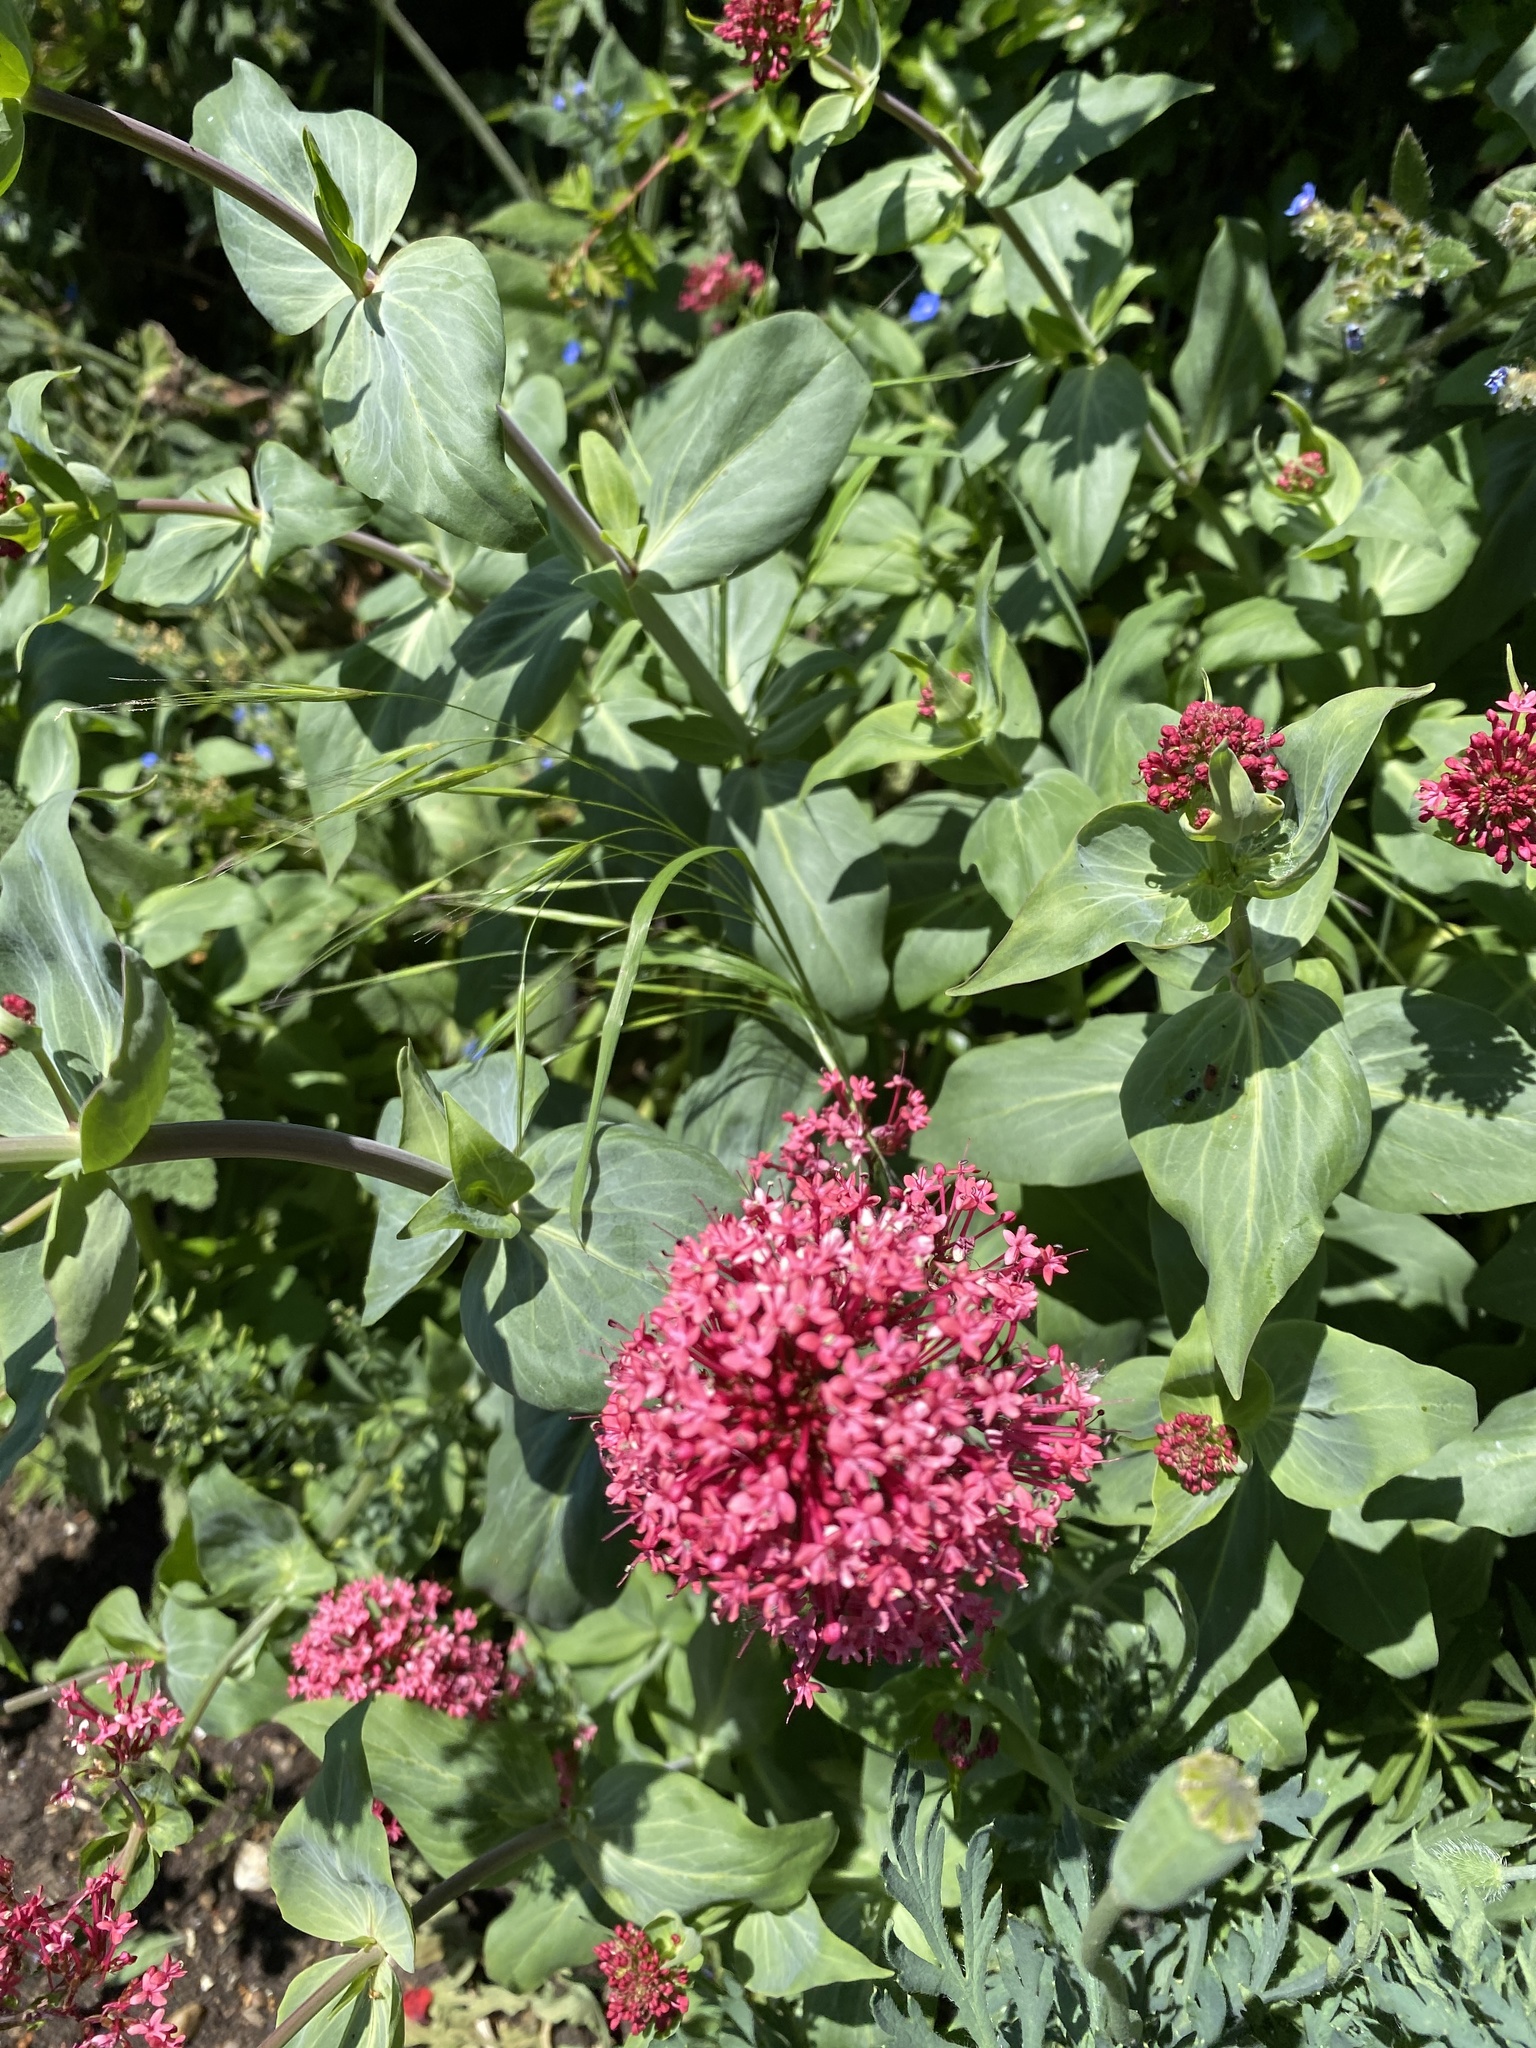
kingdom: Plantae
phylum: Tracheophyta
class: Magnoliopsida
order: Dipsacales
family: Caprifoliaceae
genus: Centranthus
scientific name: Centranthus ruber
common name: Red valerian
